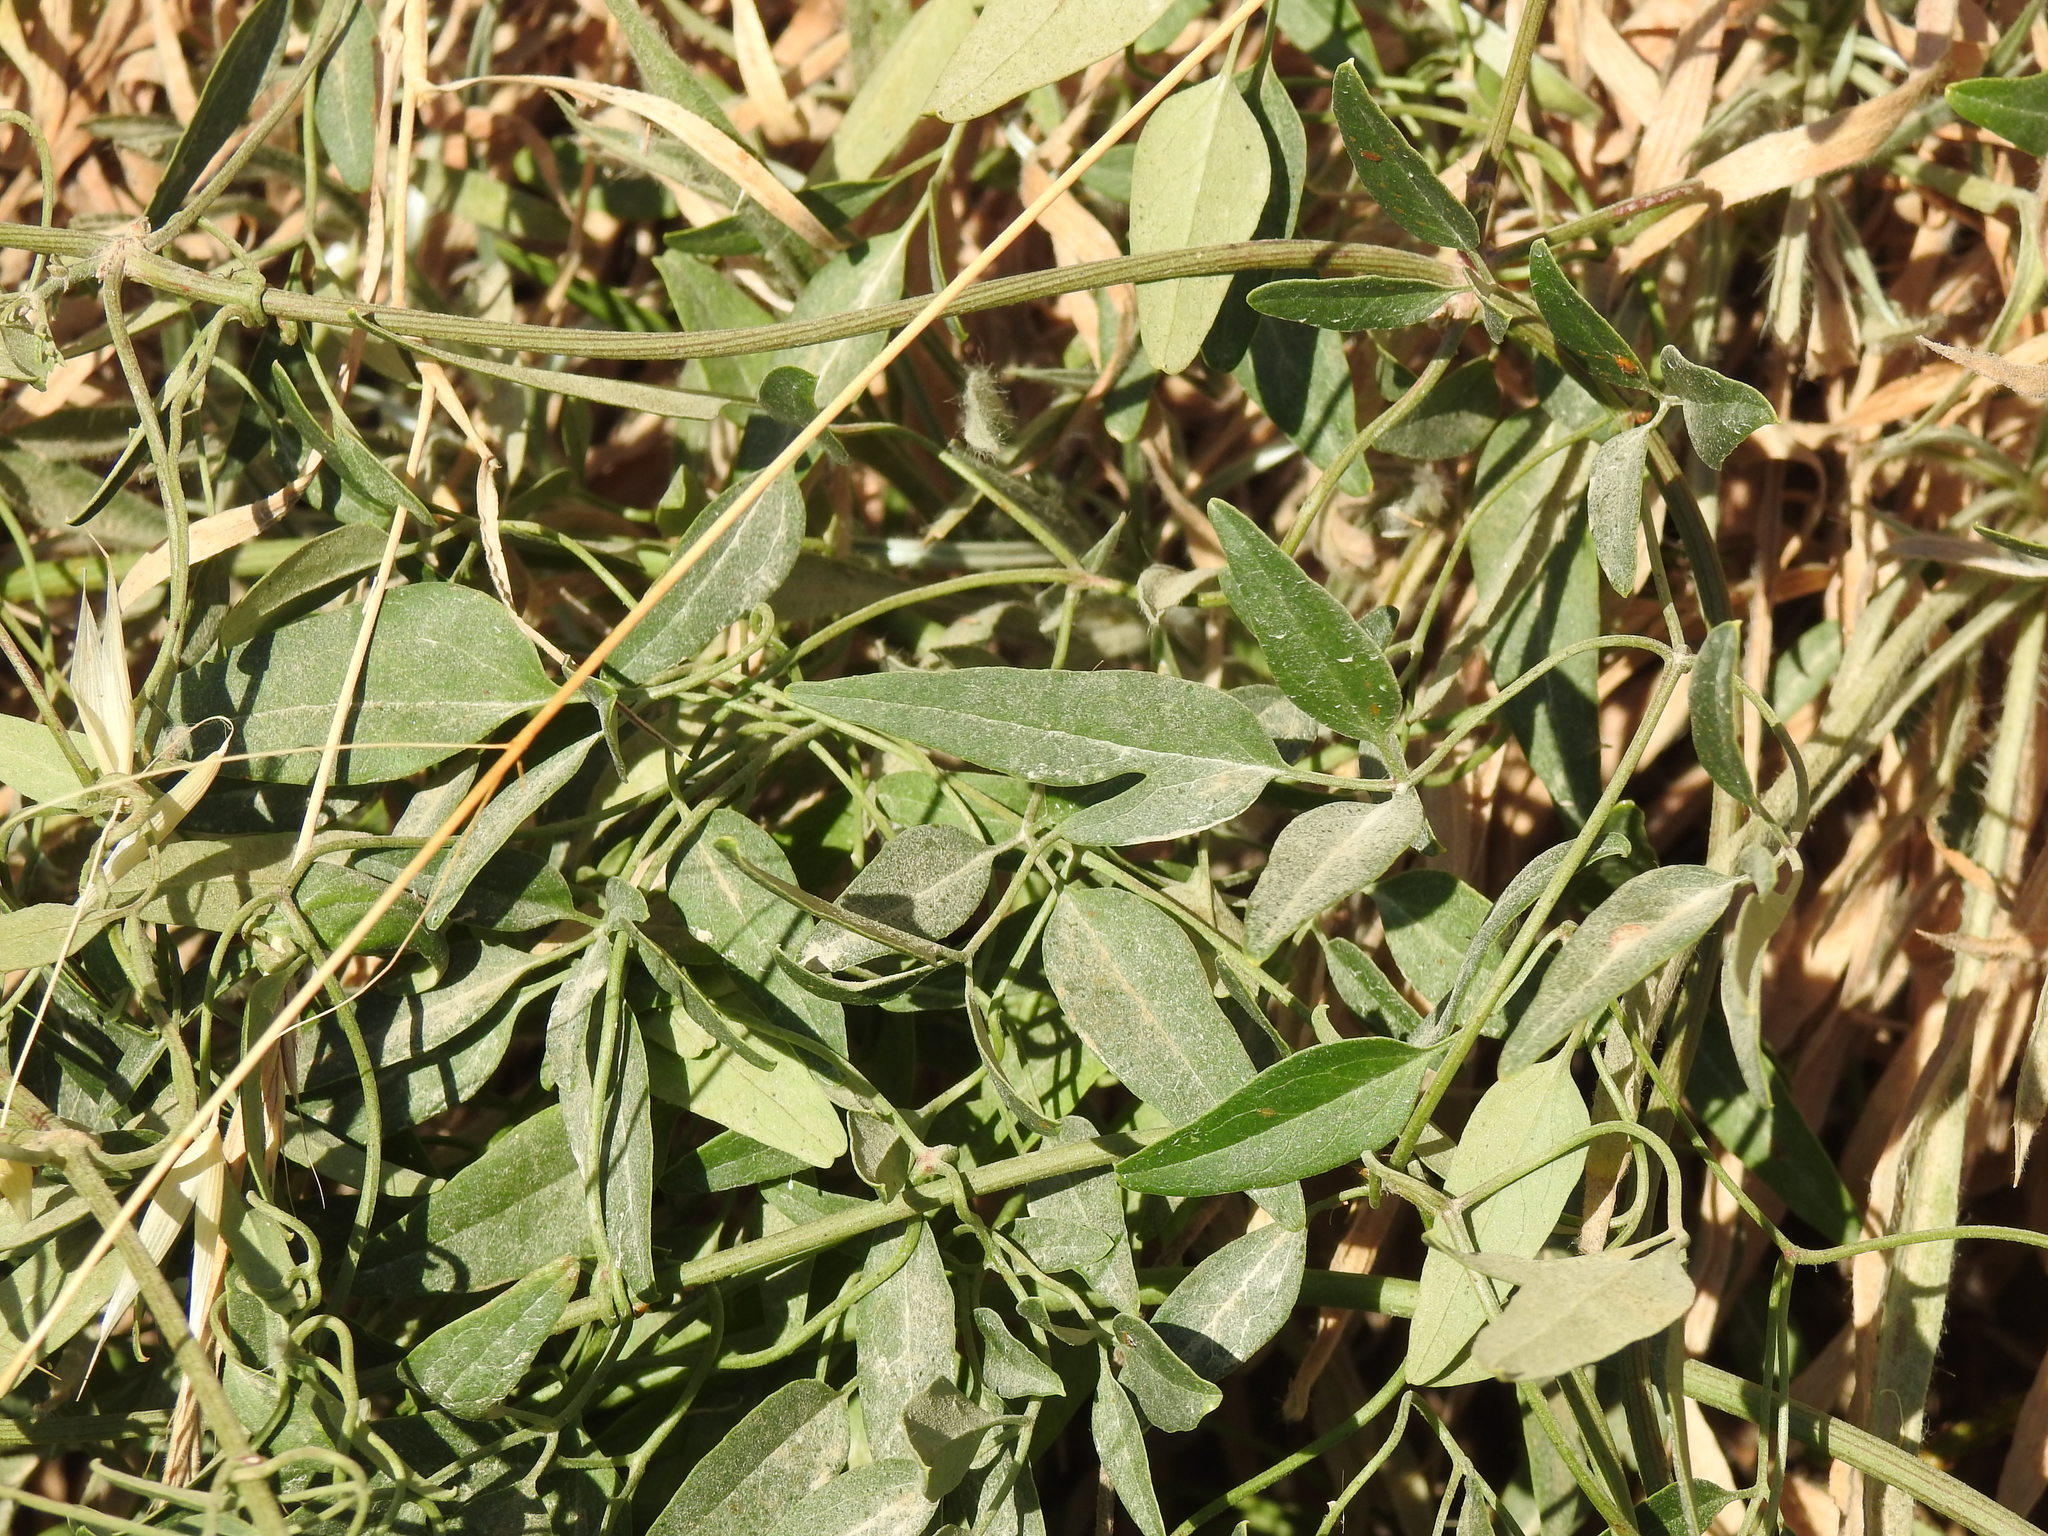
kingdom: Plantae
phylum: Tracheophyta
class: Magnoliopsida
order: Ranunculales
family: Ranunculaceae
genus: Clematis
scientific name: Clematis flammula
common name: Virgin's-bower
